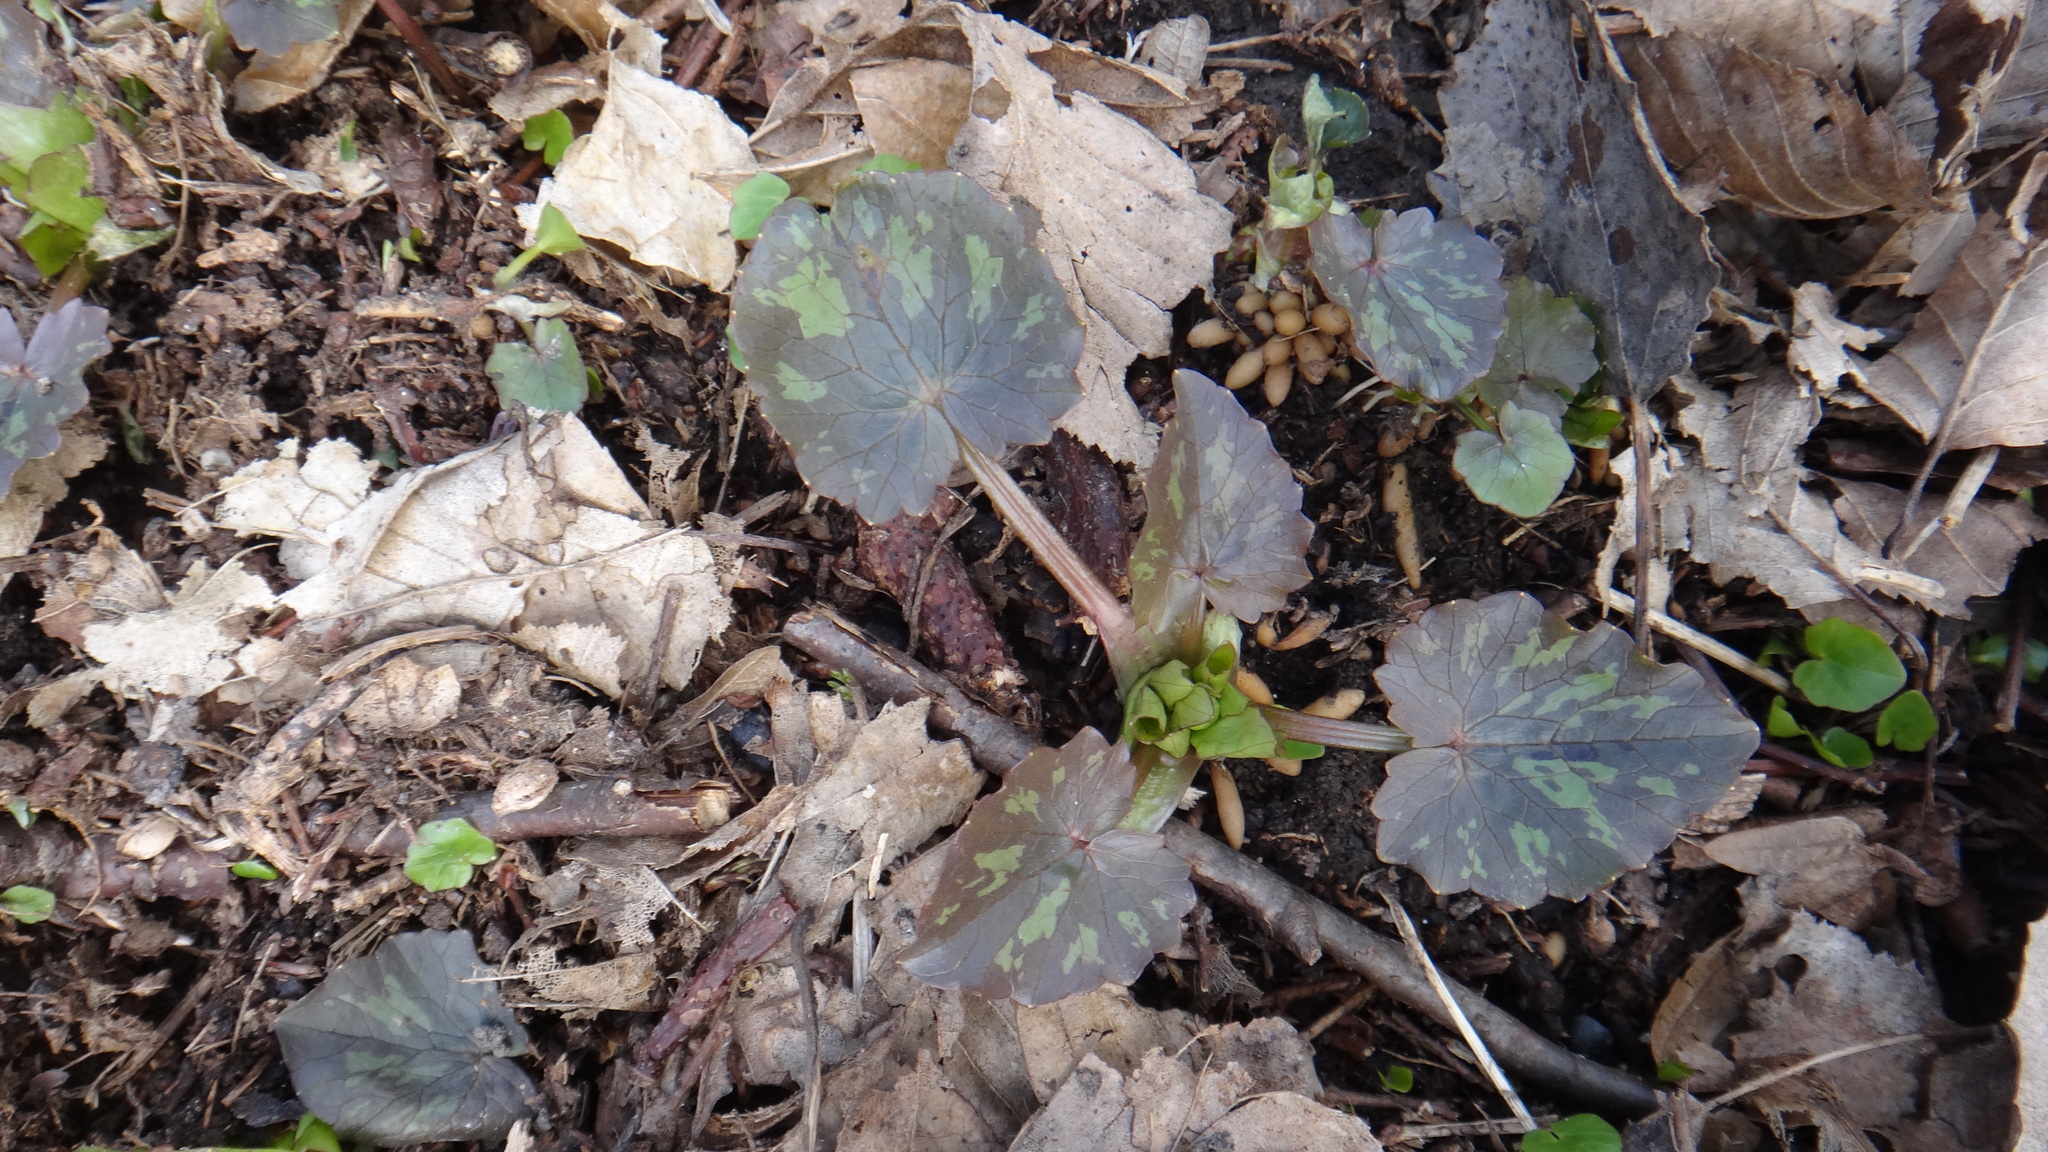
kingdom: Plantae
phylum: Tracheophyta
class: Magnoliopsida
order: Ranunculales
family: Ranunculaceae
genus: Ficaria
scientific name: Ficaria verna
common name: Lesser celandine
